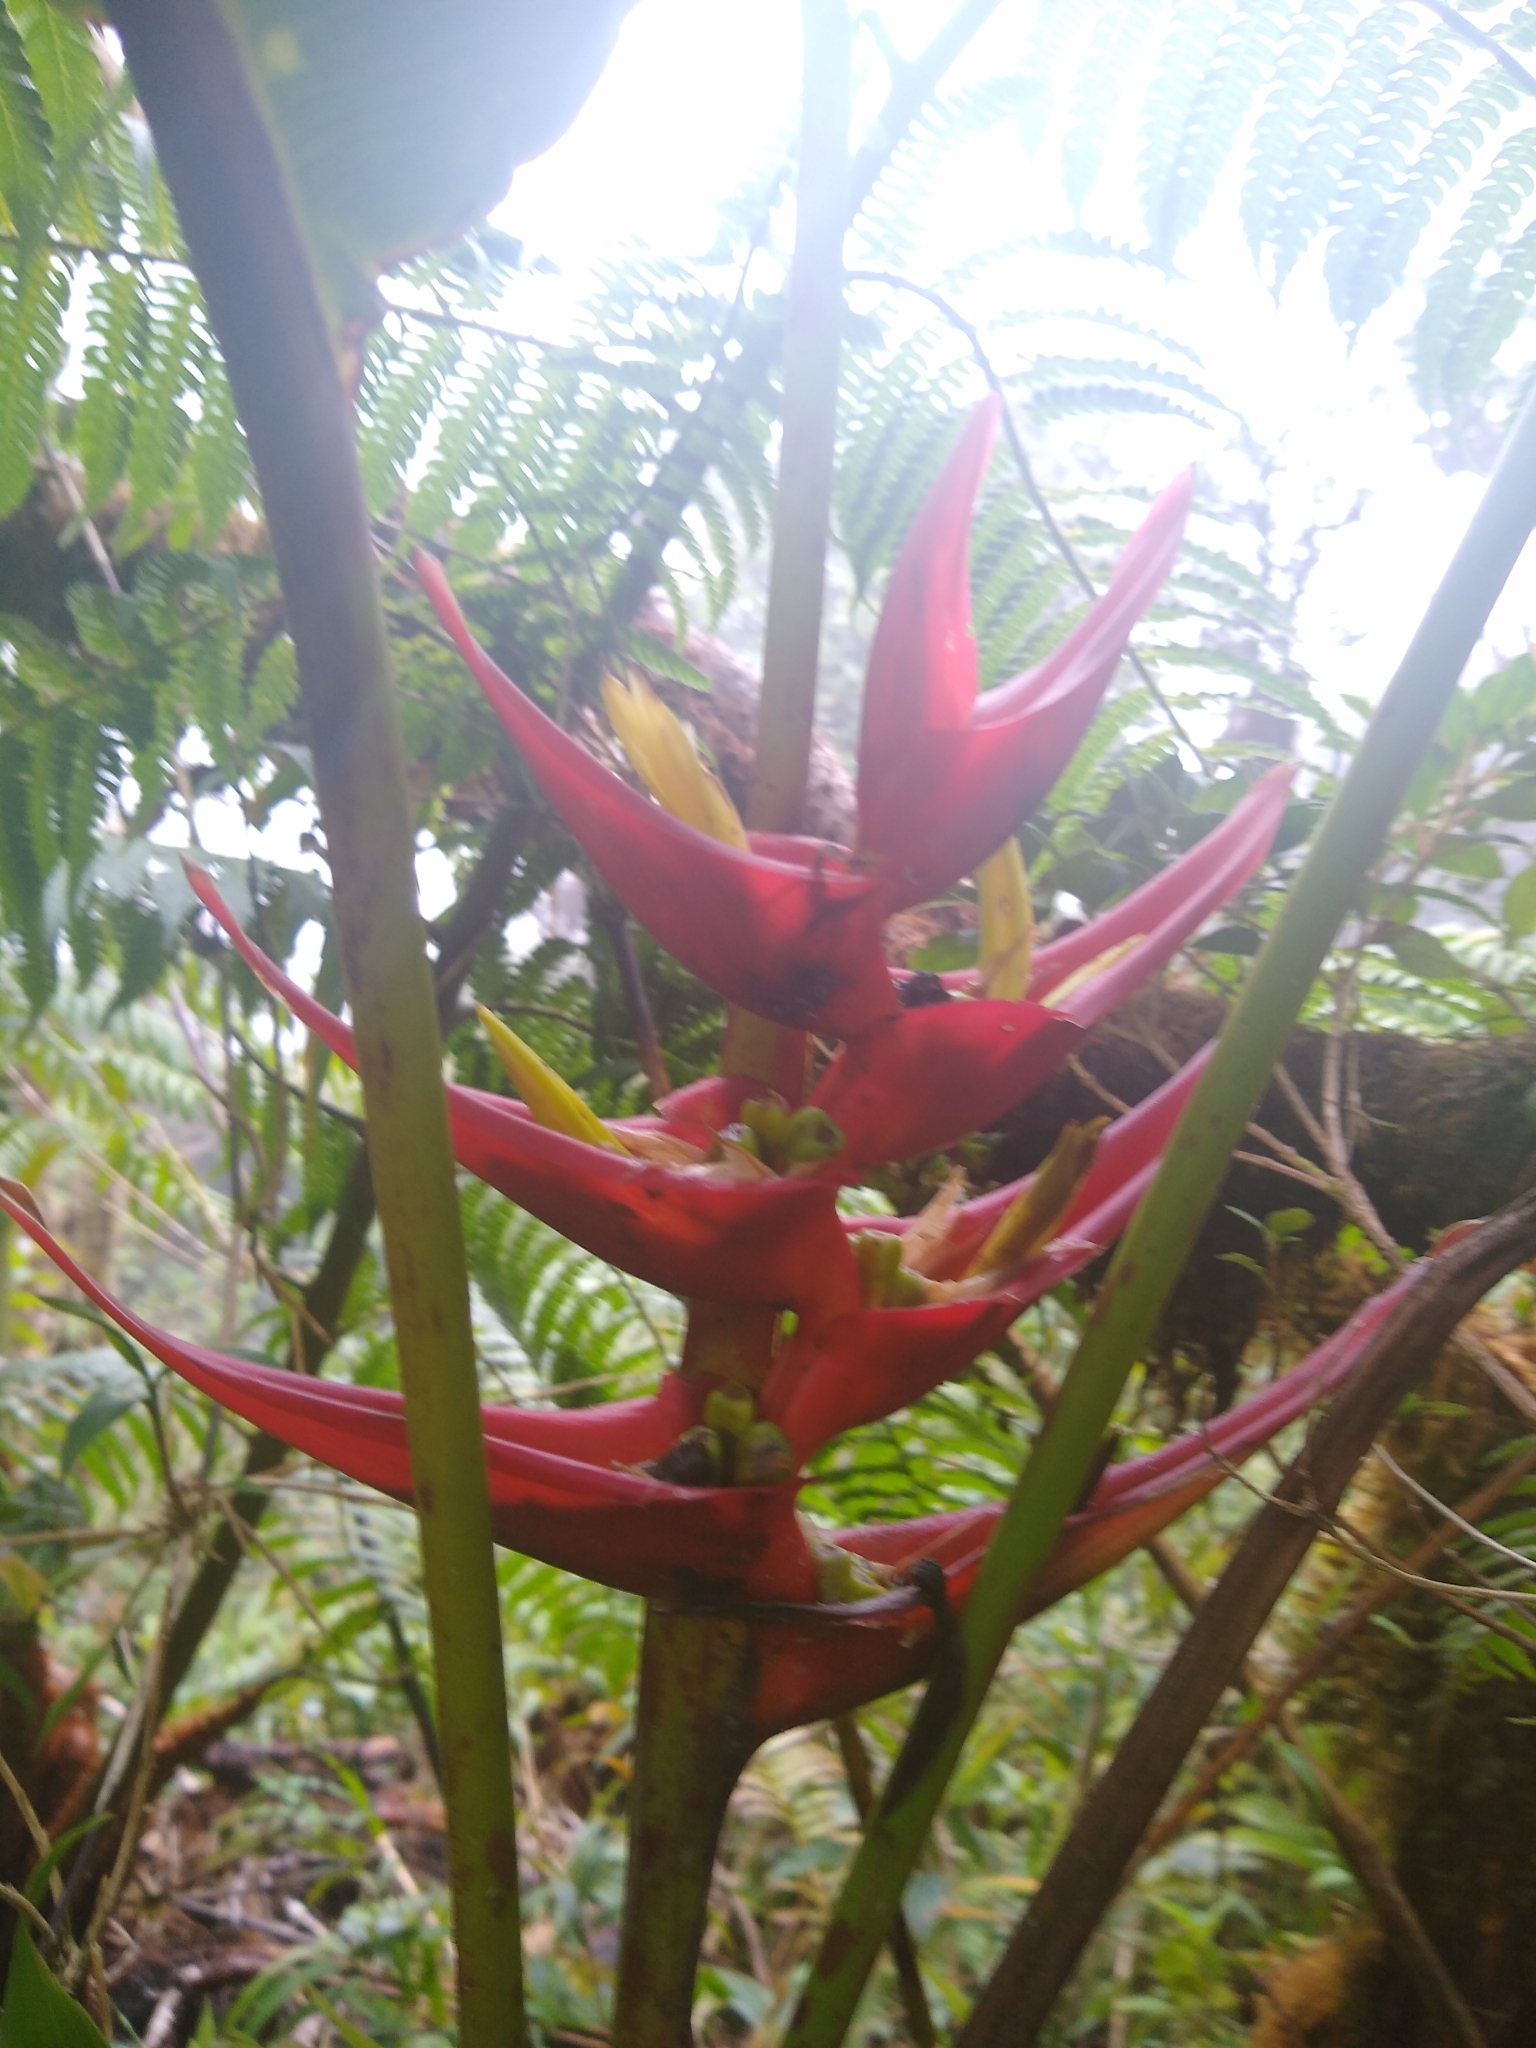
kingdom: Plantae
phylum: Tracheophyta
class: Liliopsida
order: Zingiberales
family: Heliconiaceae
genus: Heliconia
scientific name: Heliconia lankesteri
